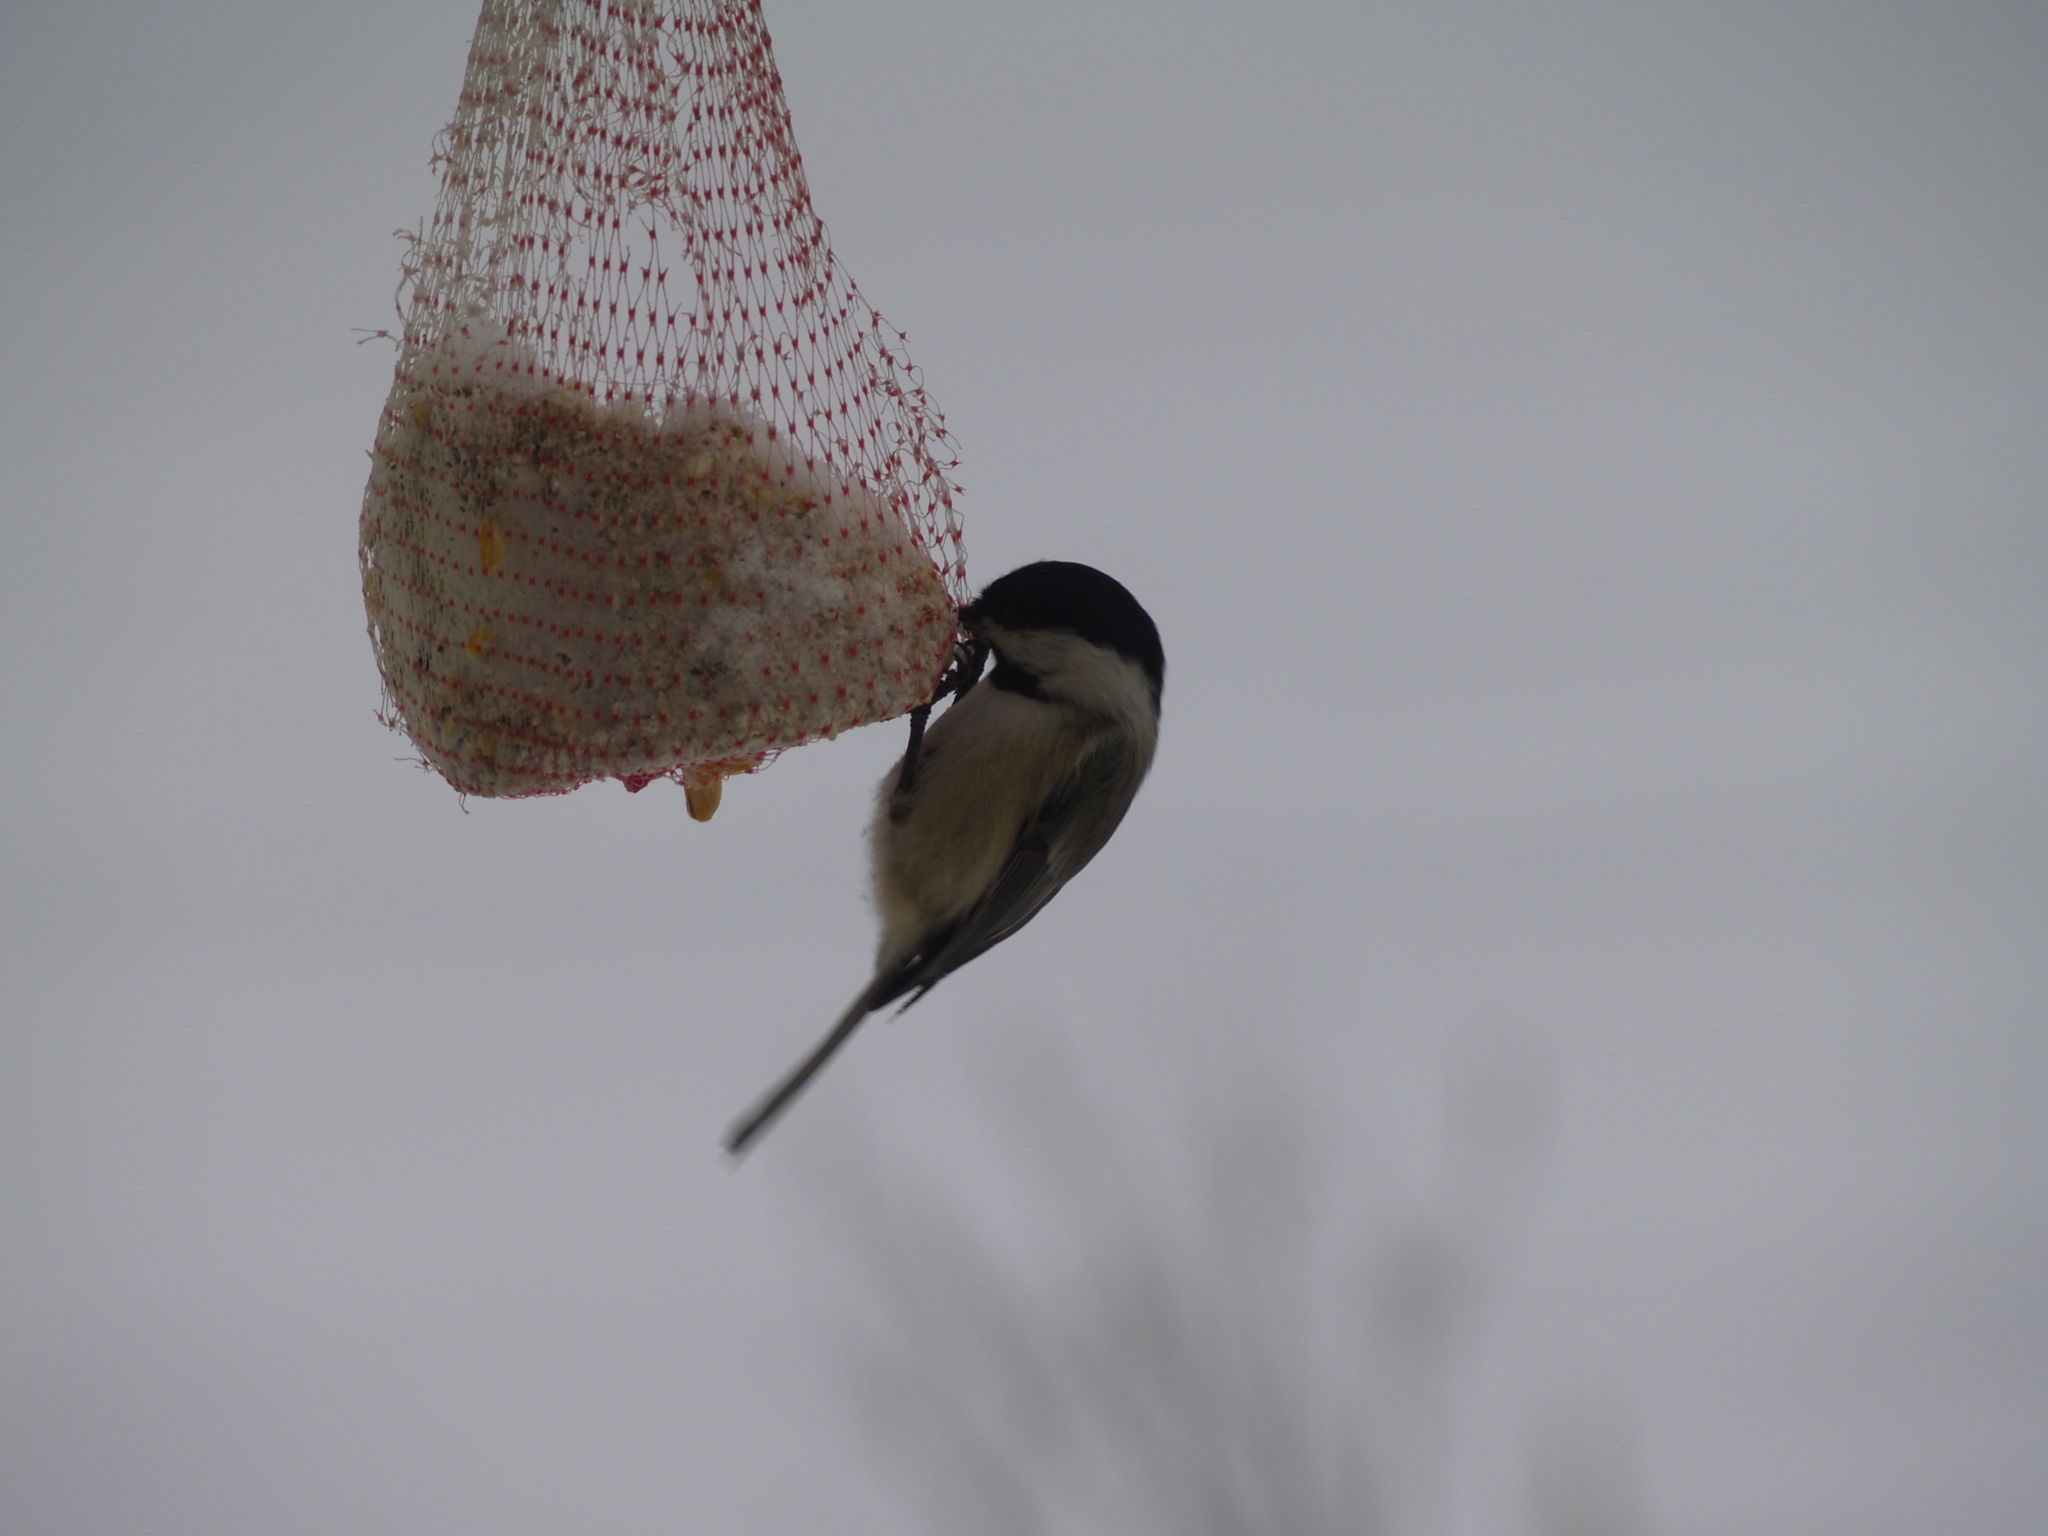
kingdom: Animalia
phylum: Chordata
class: Aves
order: Passeriformes
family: Paridae
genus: Poecile
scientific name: Poecile atricapillus
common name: Black-capped chickadee
